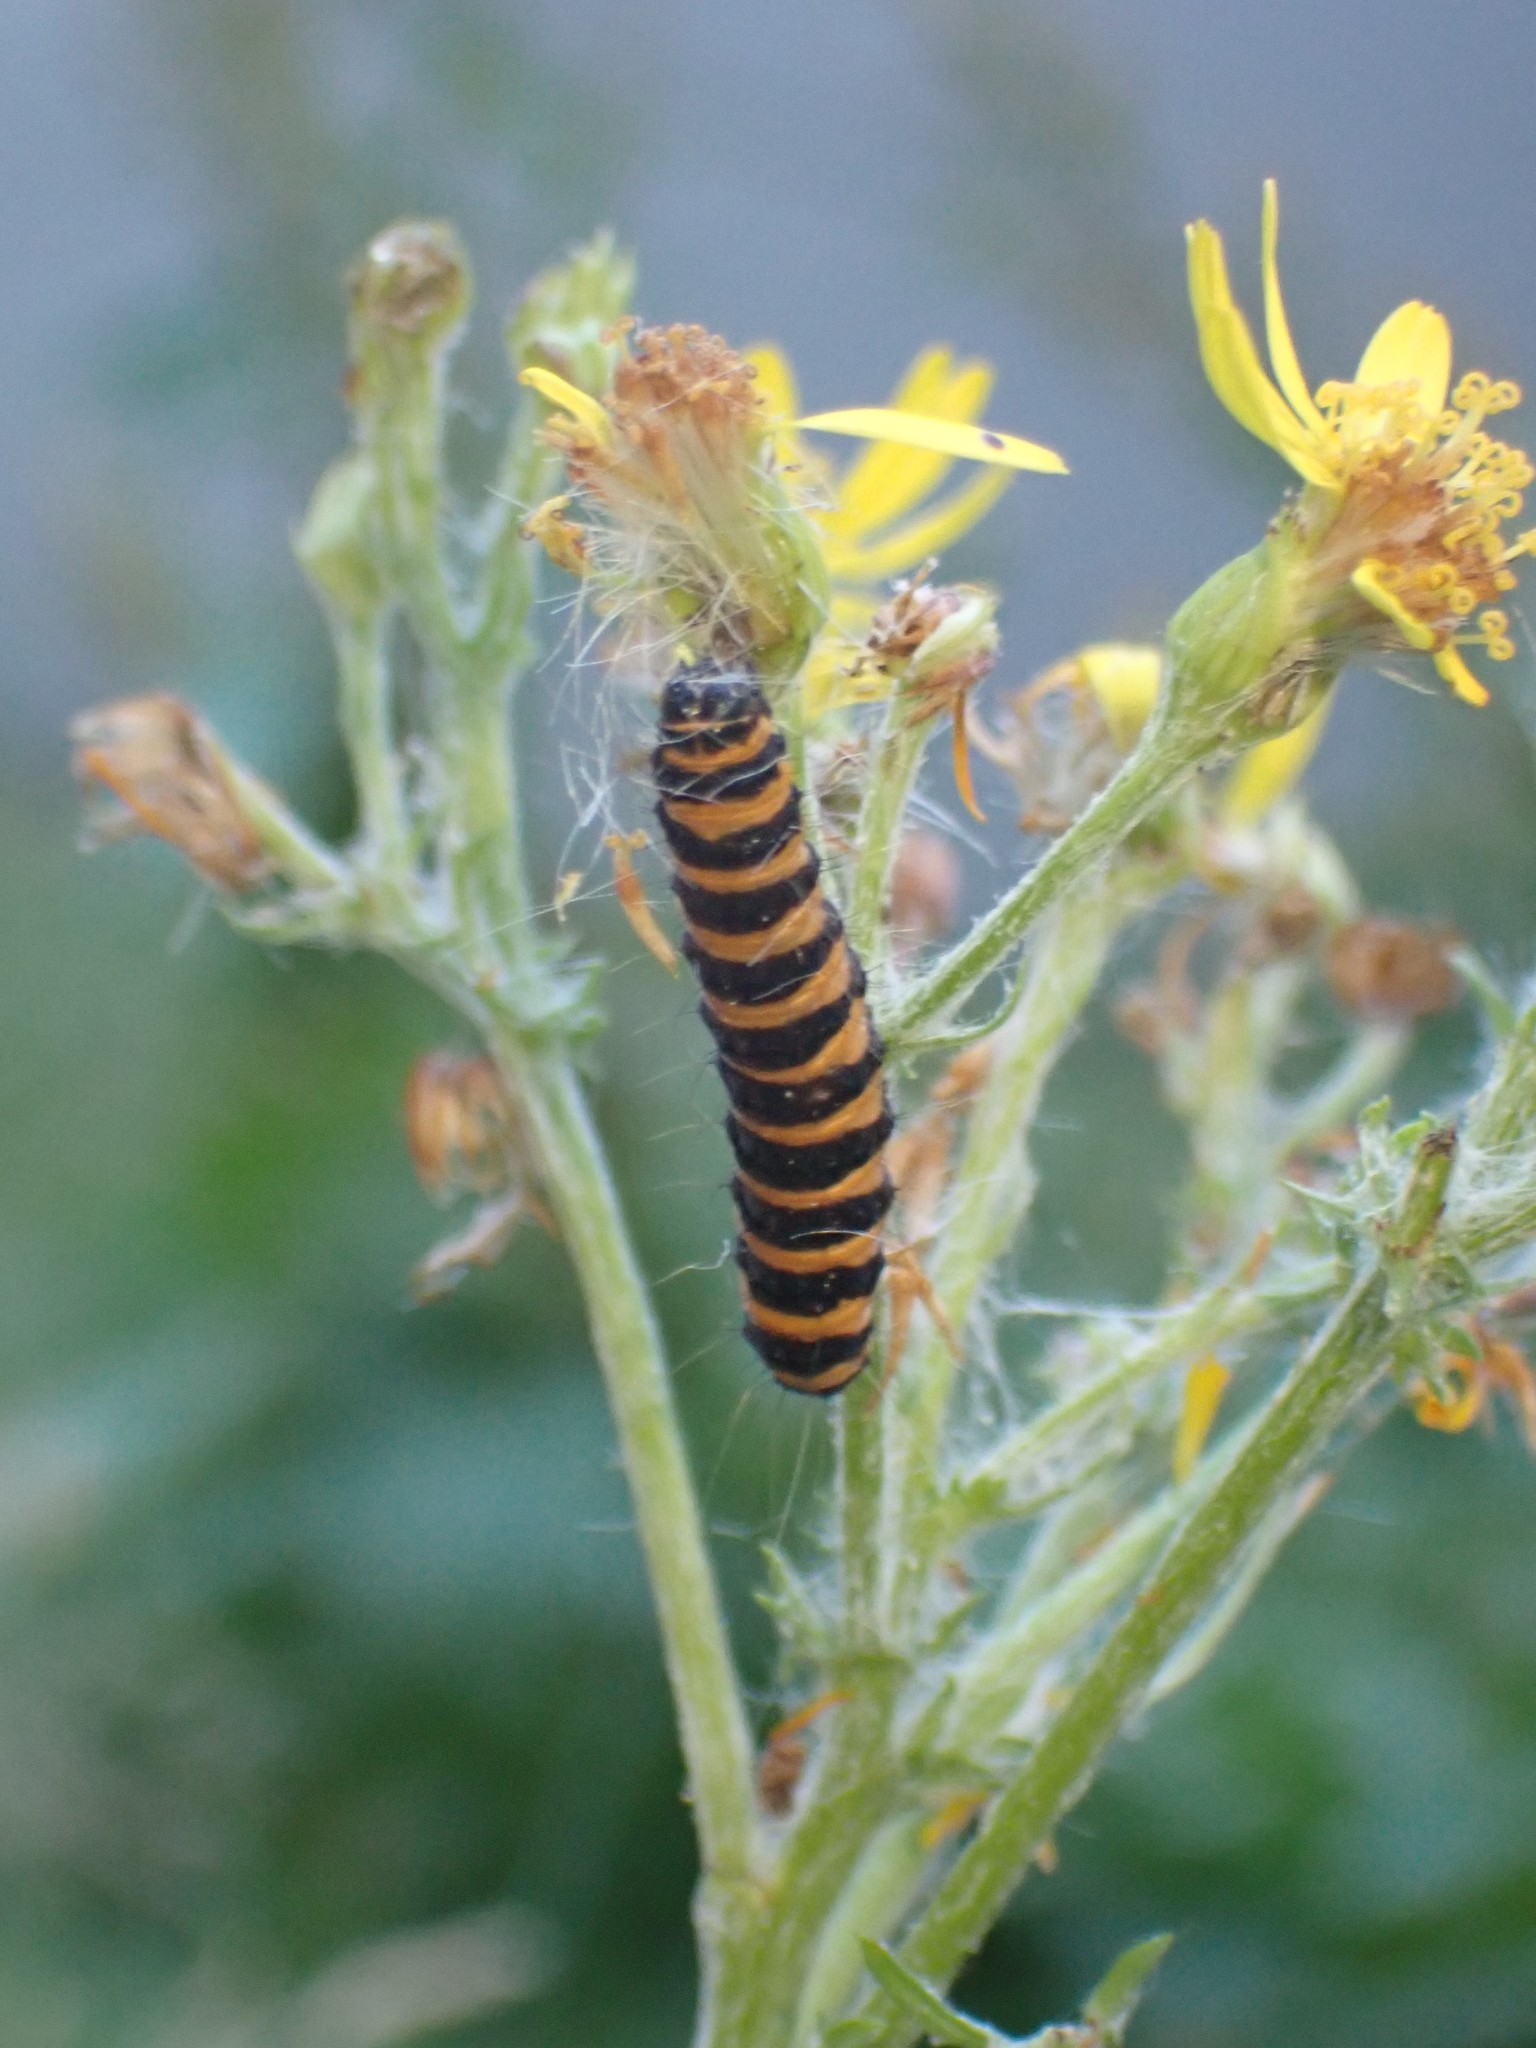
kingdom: Animalia
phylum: Arthropoda
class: Insecta
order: Lepidoptera
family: Erebidae
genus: Tyria
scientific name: Tyria jacobaeae
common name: Cinnabar
